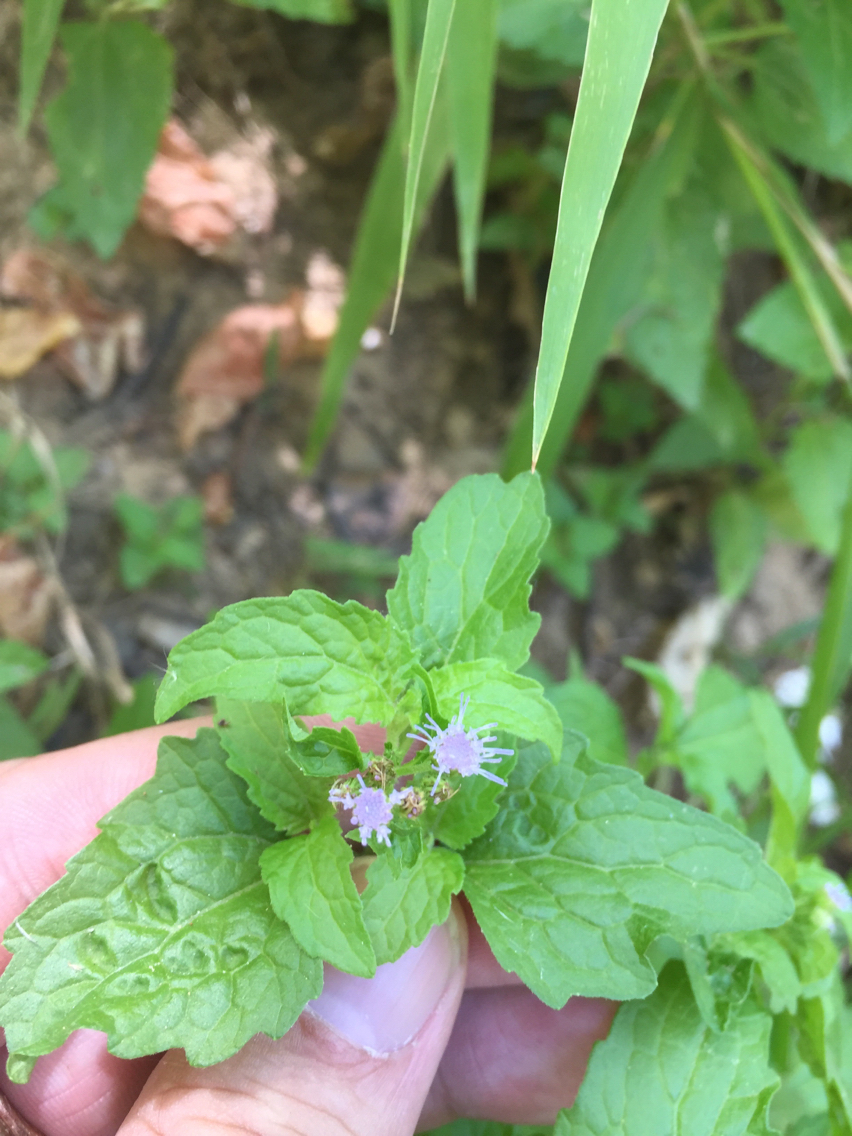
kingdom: Plantae
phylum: Tracheophyta
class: Magnoliopsida
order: Asterales
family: Asteraceae
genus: Conoclinium
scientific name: Conoclinium coelestinum
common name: Blue mistflower
